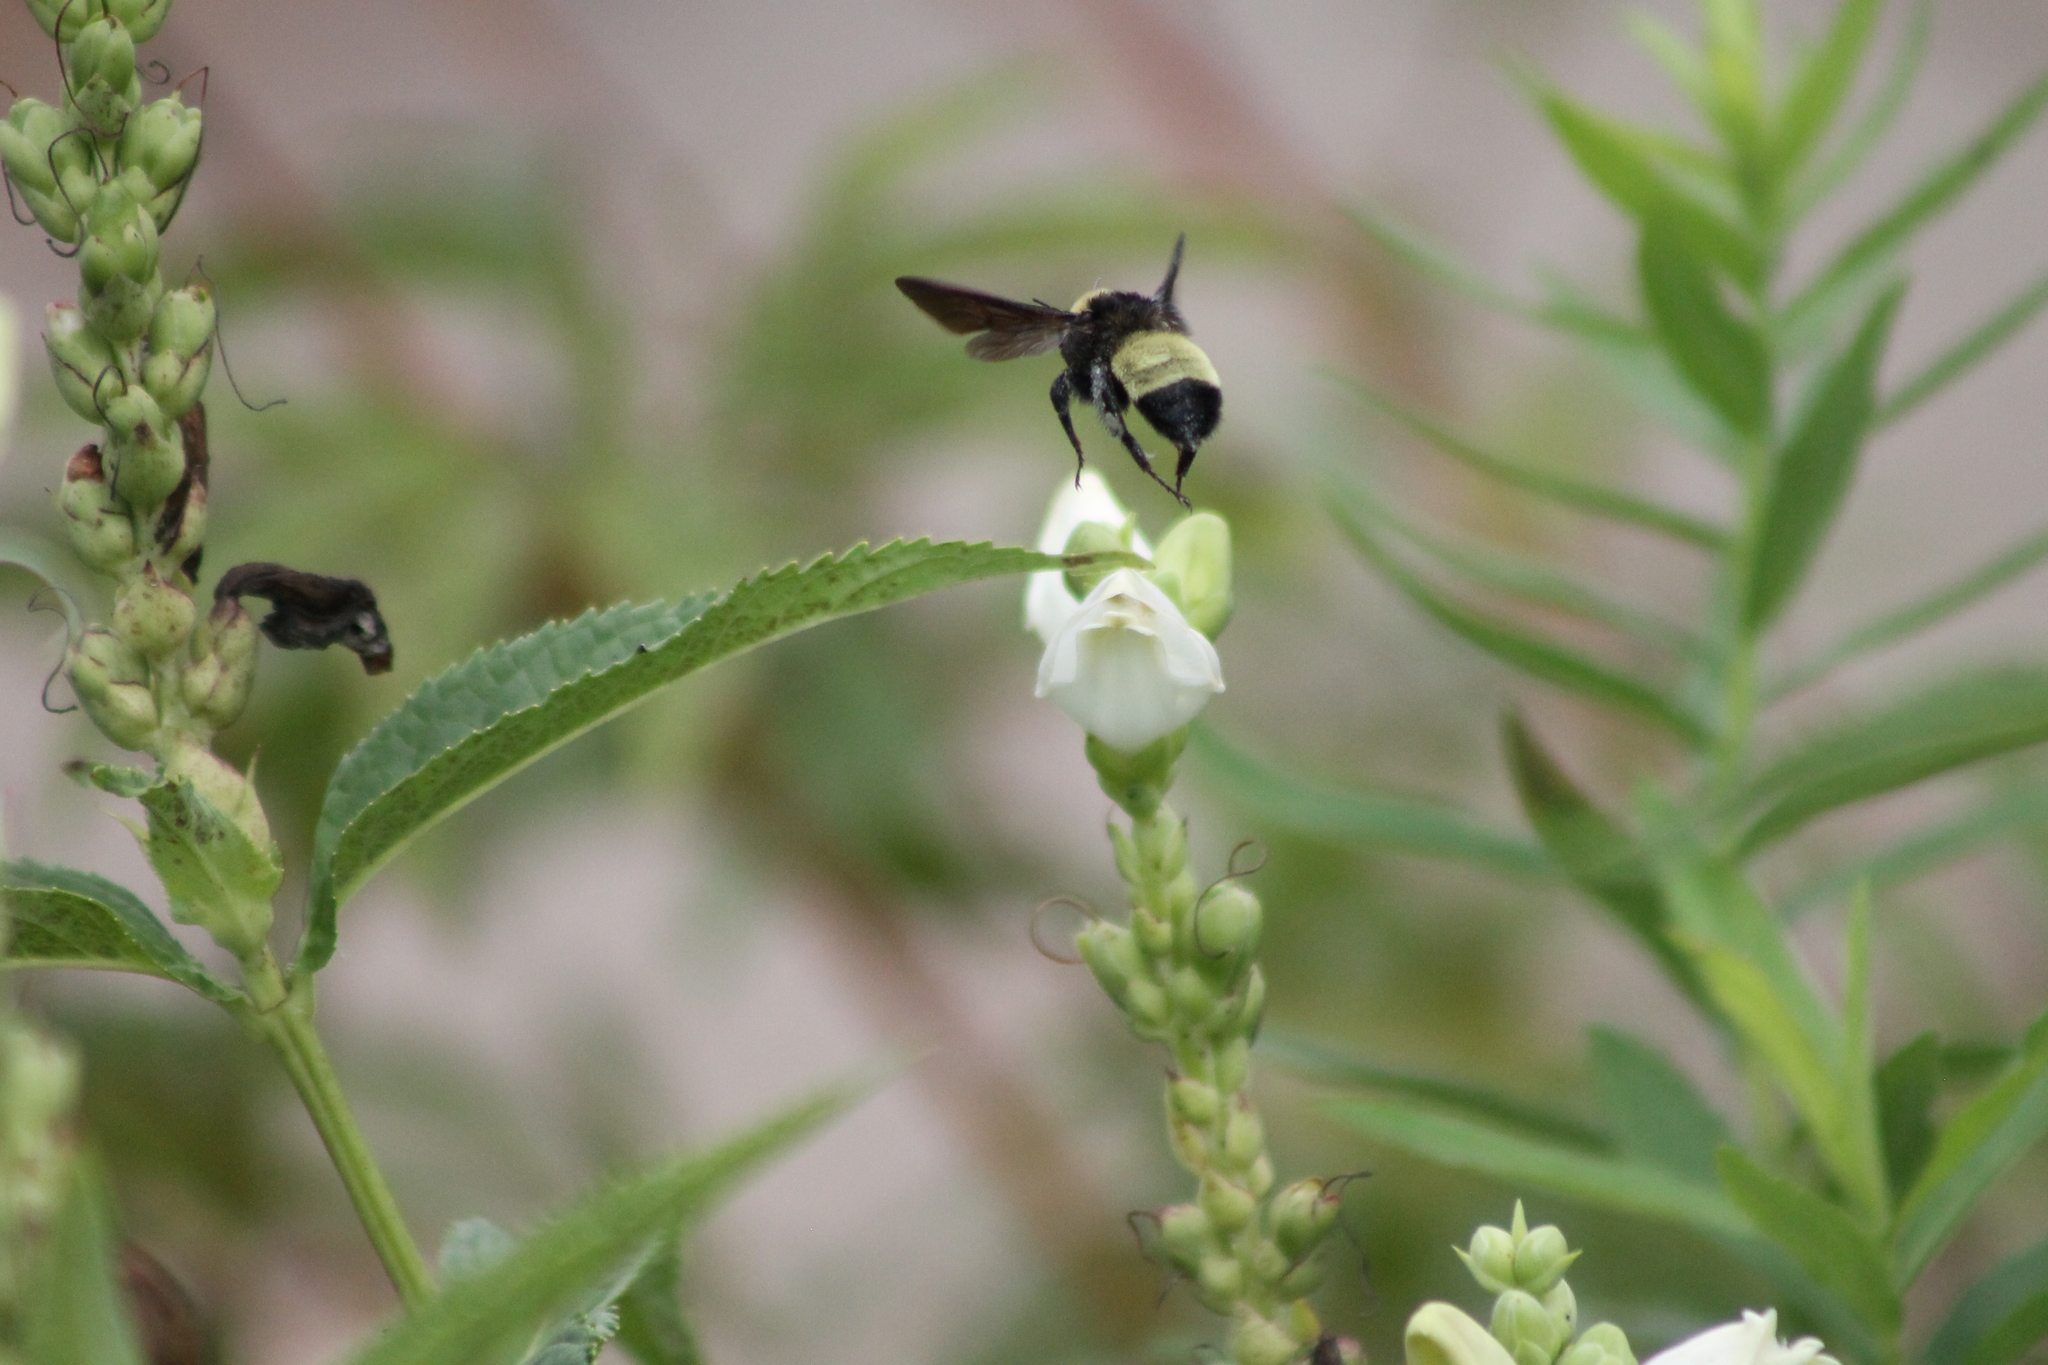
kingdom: Animalia
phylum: Arthropoda
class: Insecta
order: Hymenoptera
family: Apidae
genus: Bombus
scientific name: Bombus pensylvanicus
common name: Bumble bee
